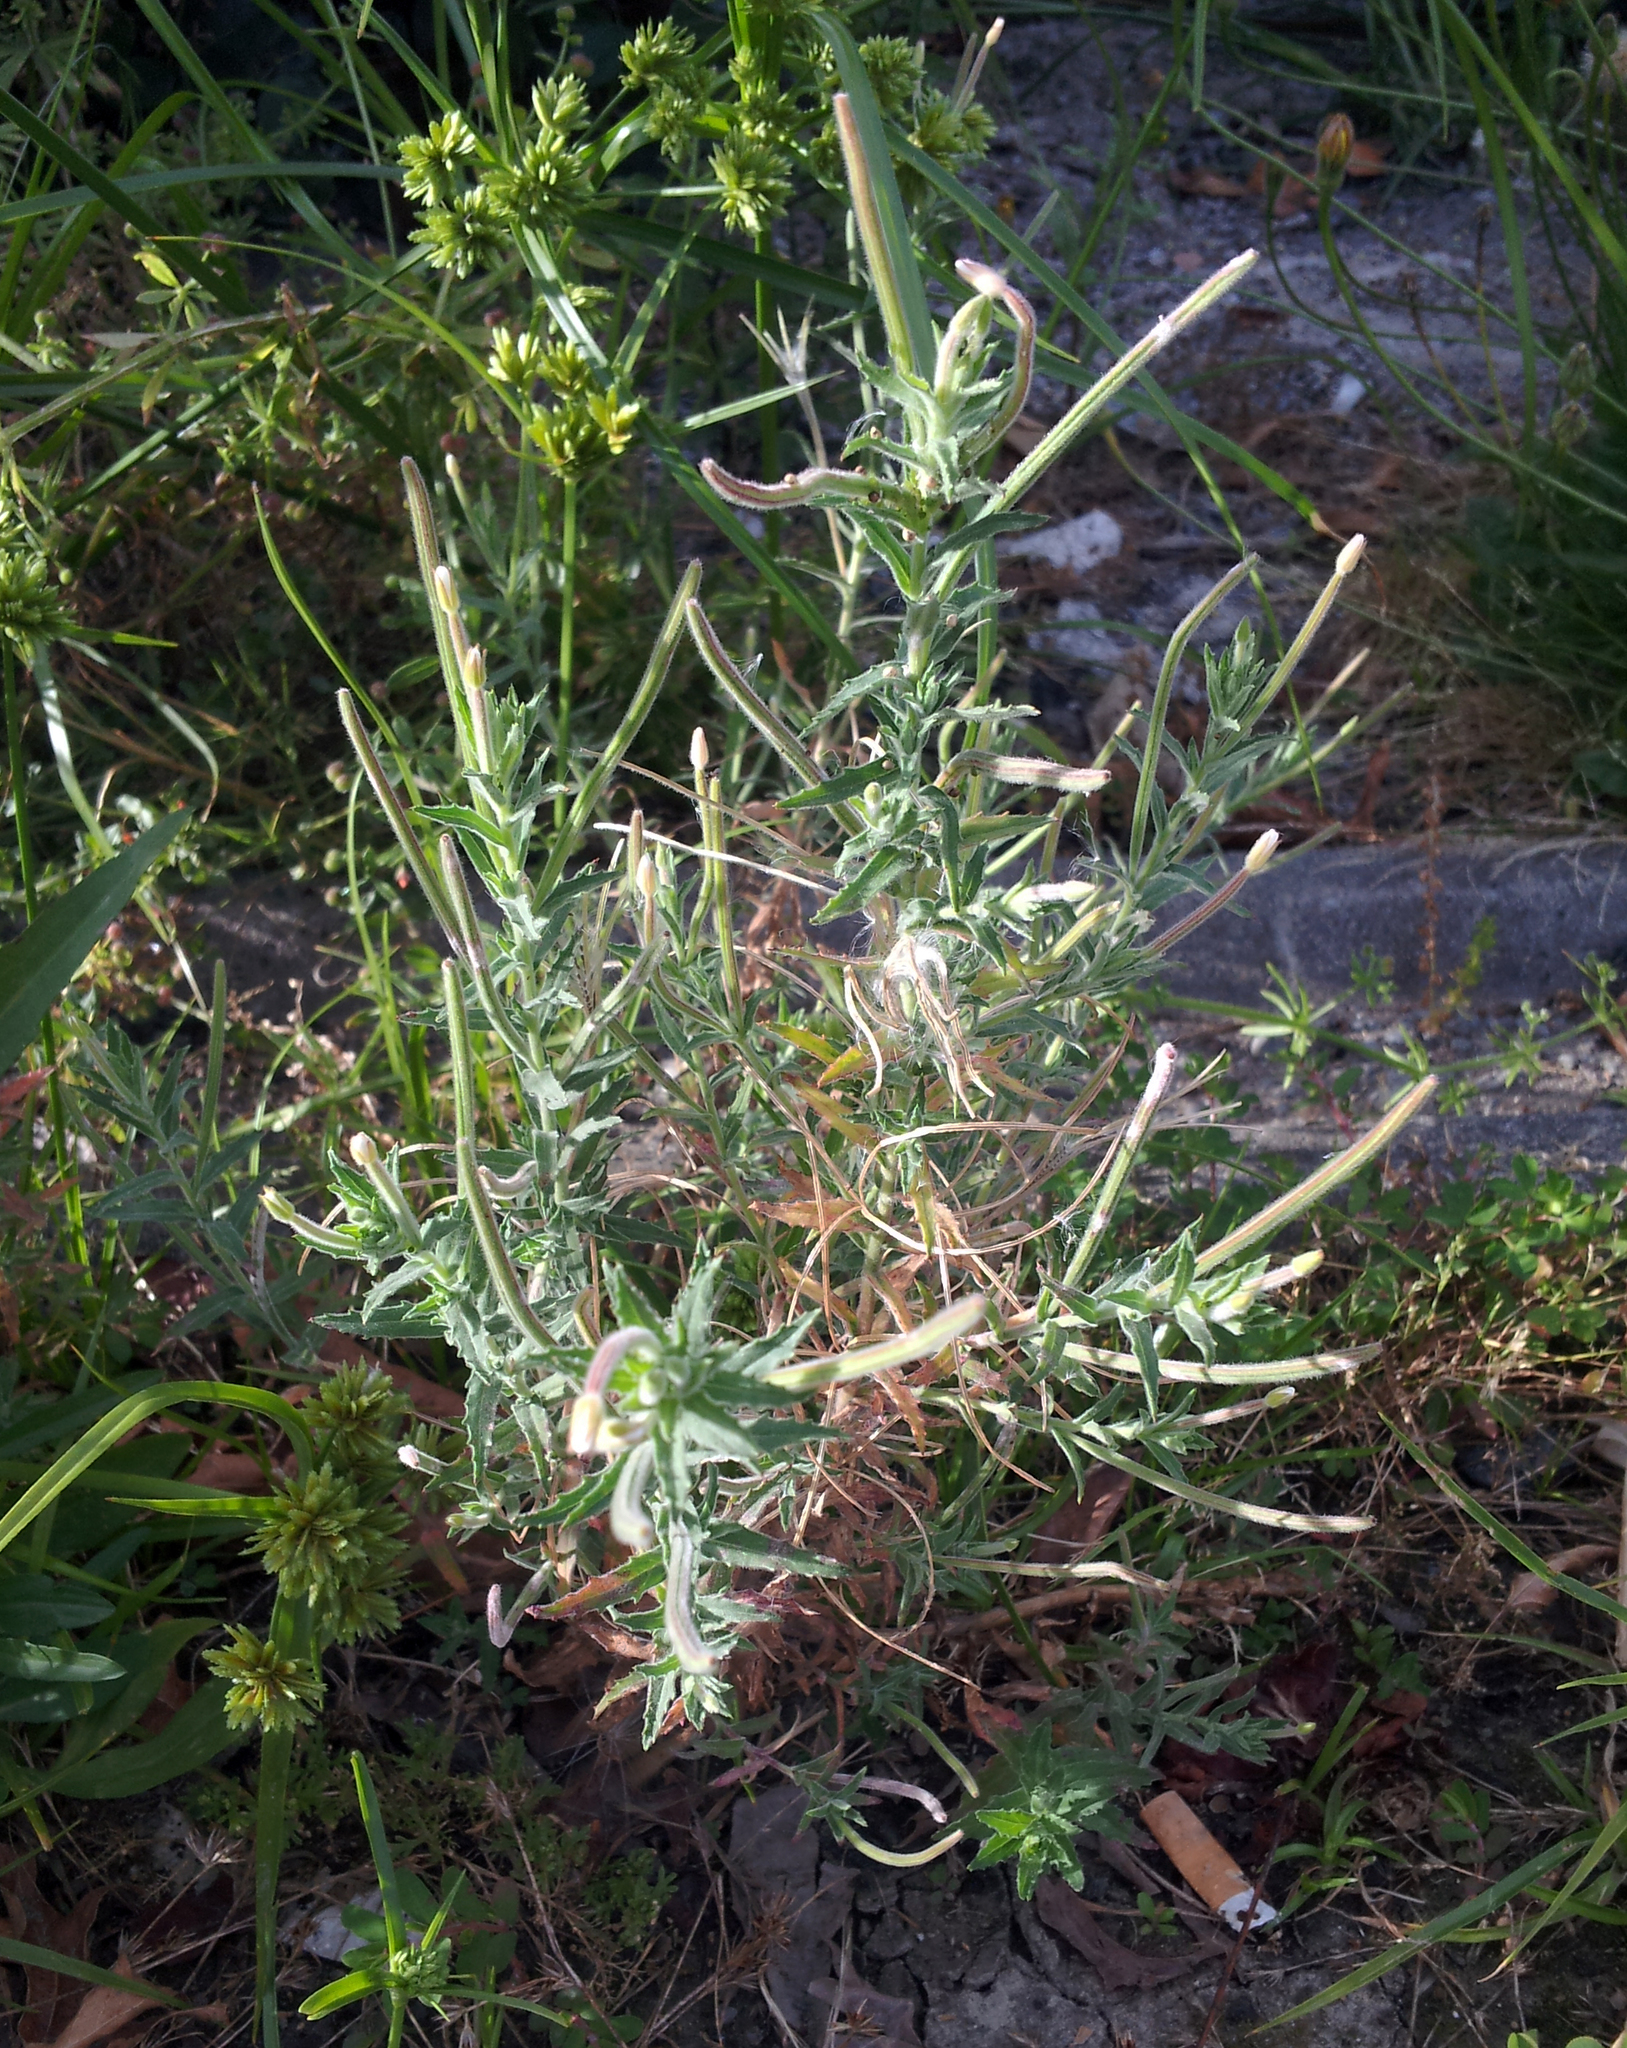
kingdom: Plantae
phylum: Tracheophyta
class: Magnoliopsida
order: Myrtales
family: Onagraceae
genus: Epilobium
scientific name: Epilobium hirtigerum
